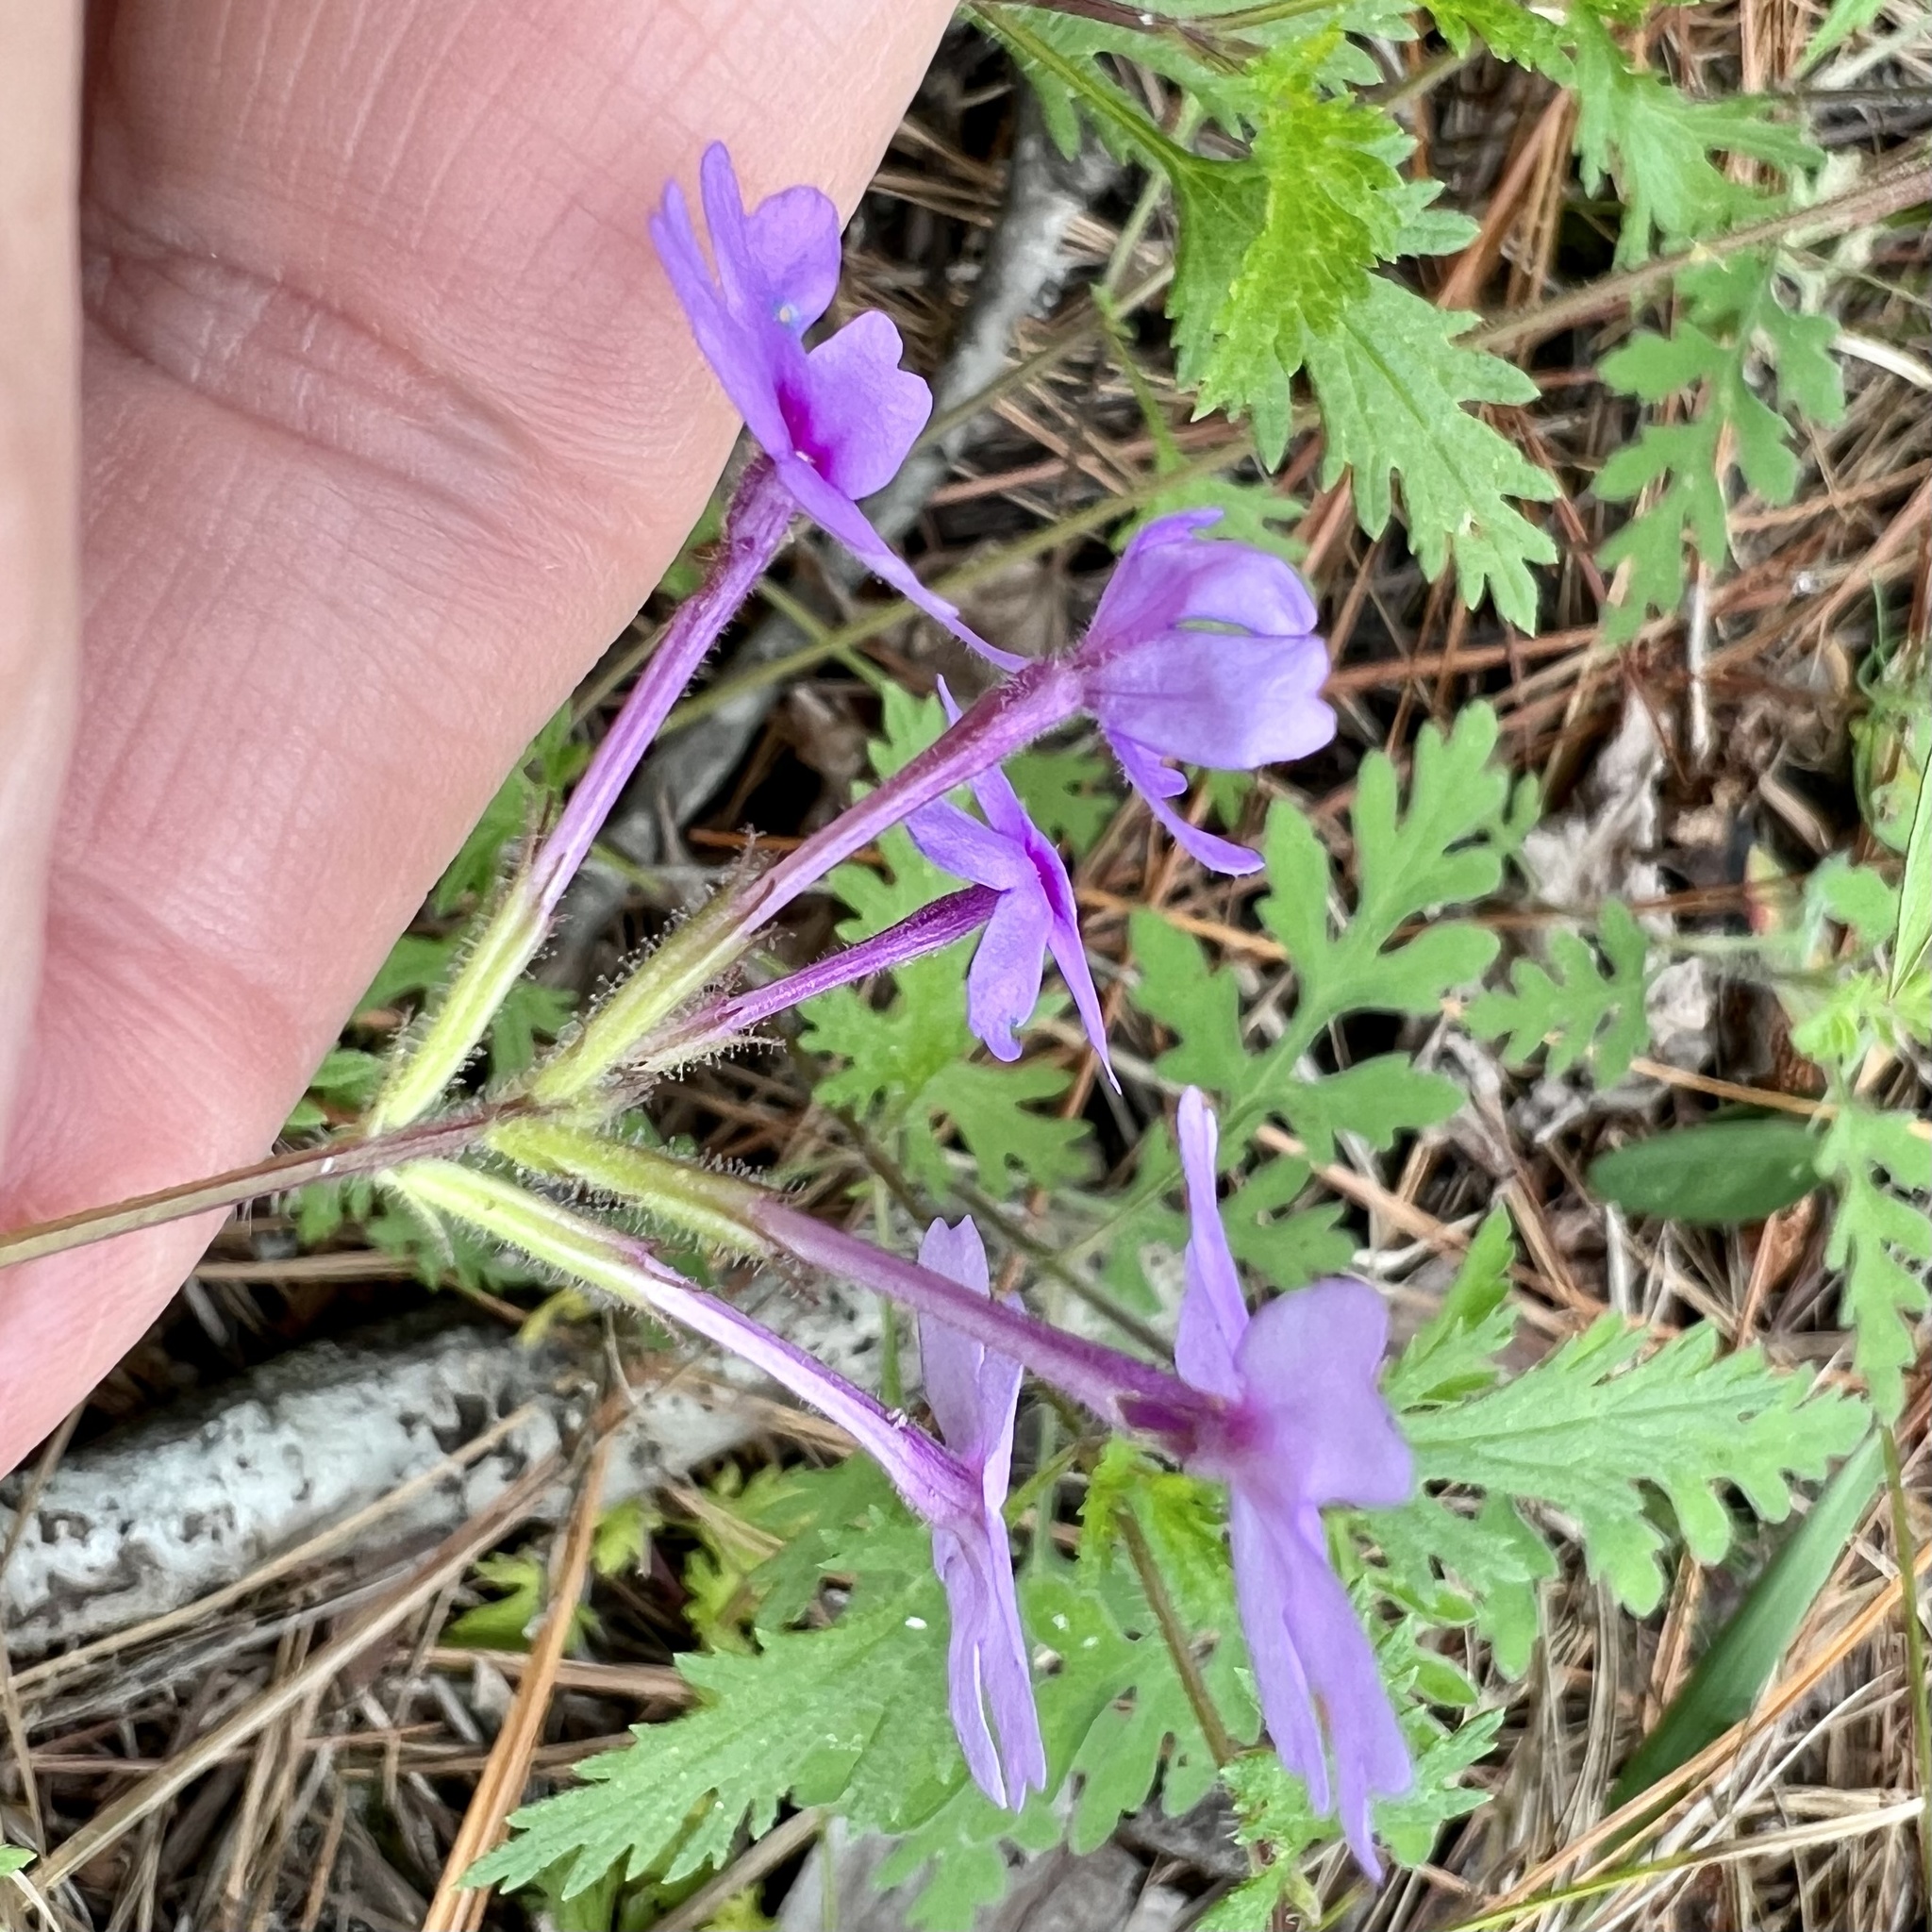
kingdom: Plantae
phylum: Tracheophyta
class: Magnoliopsida
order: Lamiales
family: Verbenaceae
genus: Verbena
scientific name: Verbena canadensis
